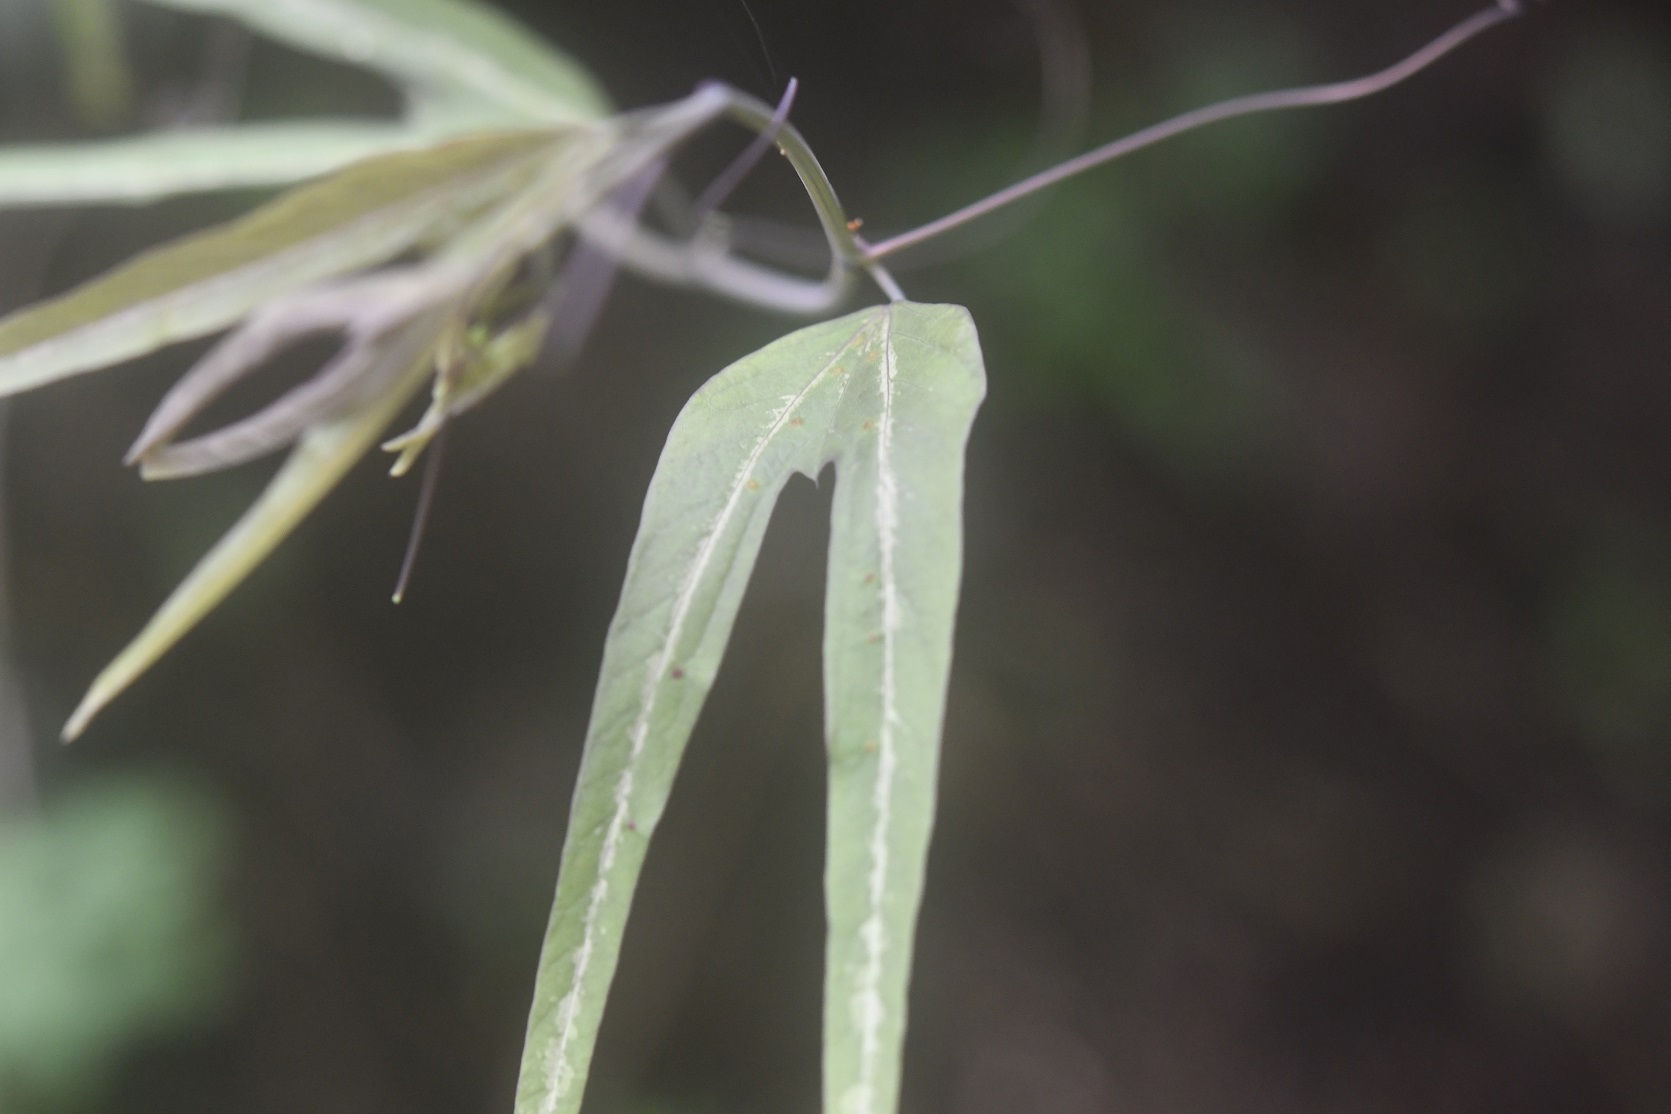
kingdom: Plantae
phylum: Tracheophyta
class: Magnoliopsida
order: Malpighiales
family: Passifloraceae
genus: Passiflora
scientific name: Passiflora mexicana
